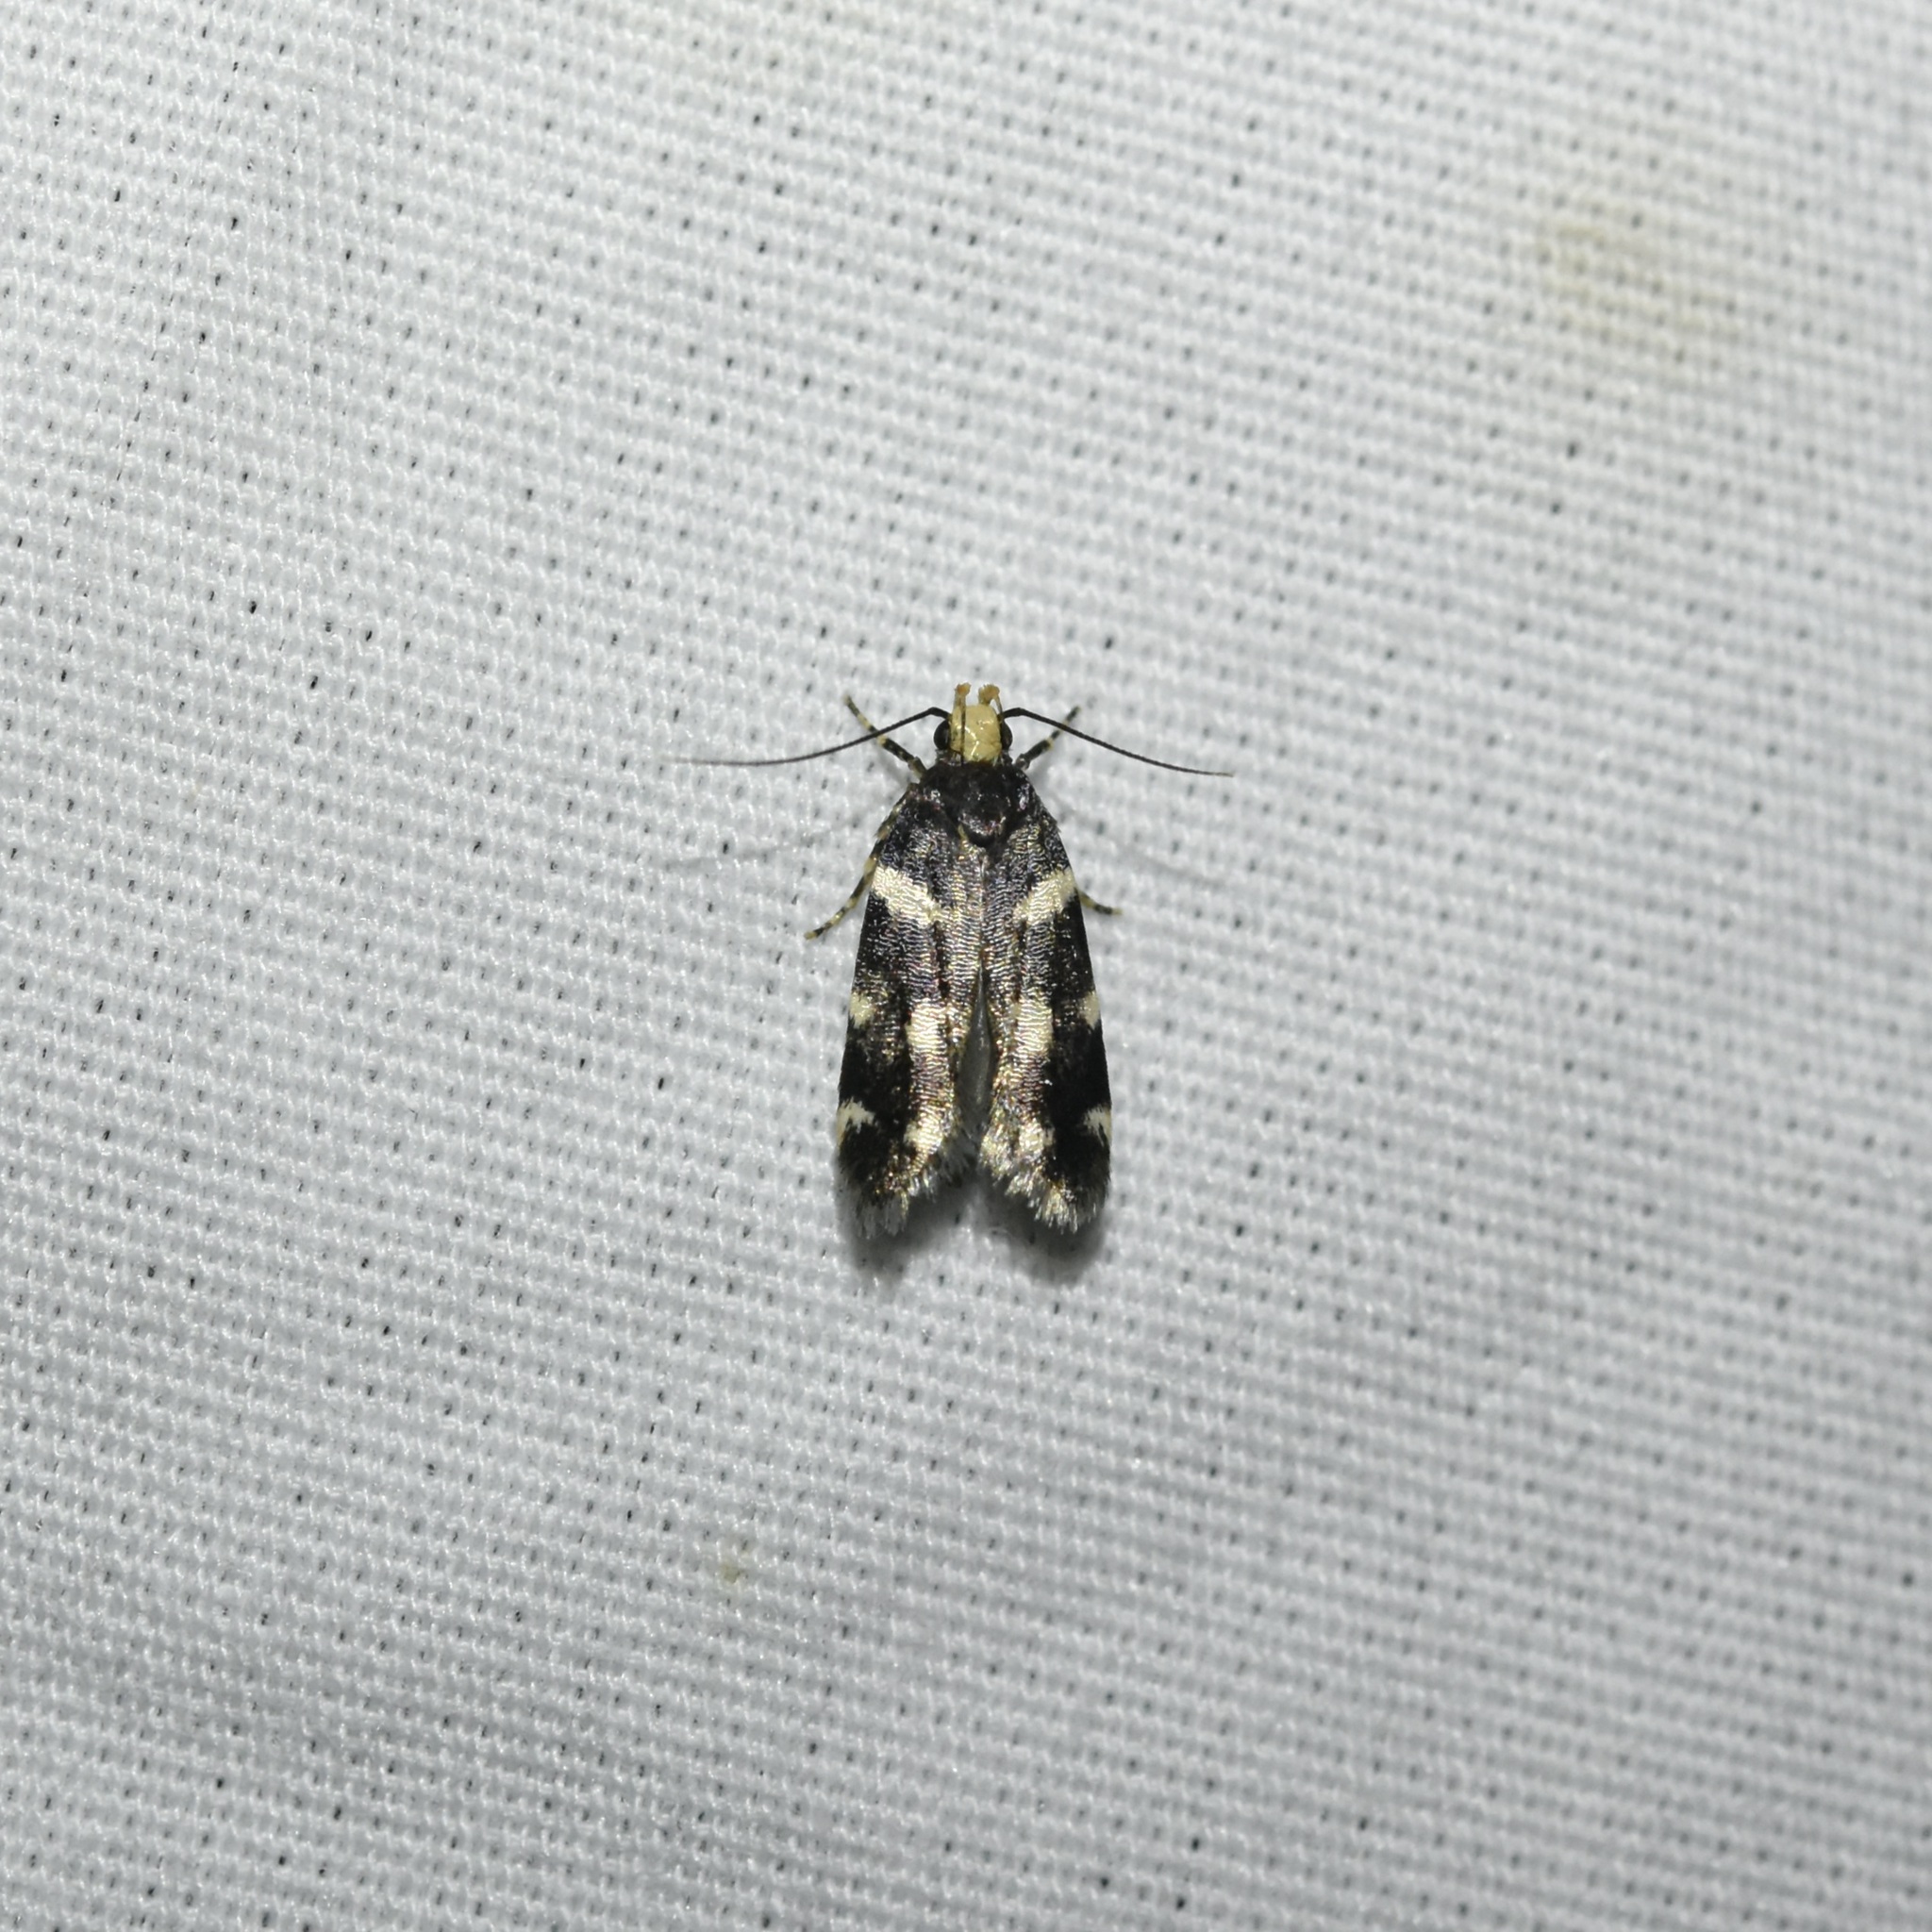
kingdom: Animalia
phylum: Arthropoda
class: Insecta
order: Lepidoptera
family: Gelechiidae
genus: Fascista
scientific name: Fascista cercerisella
